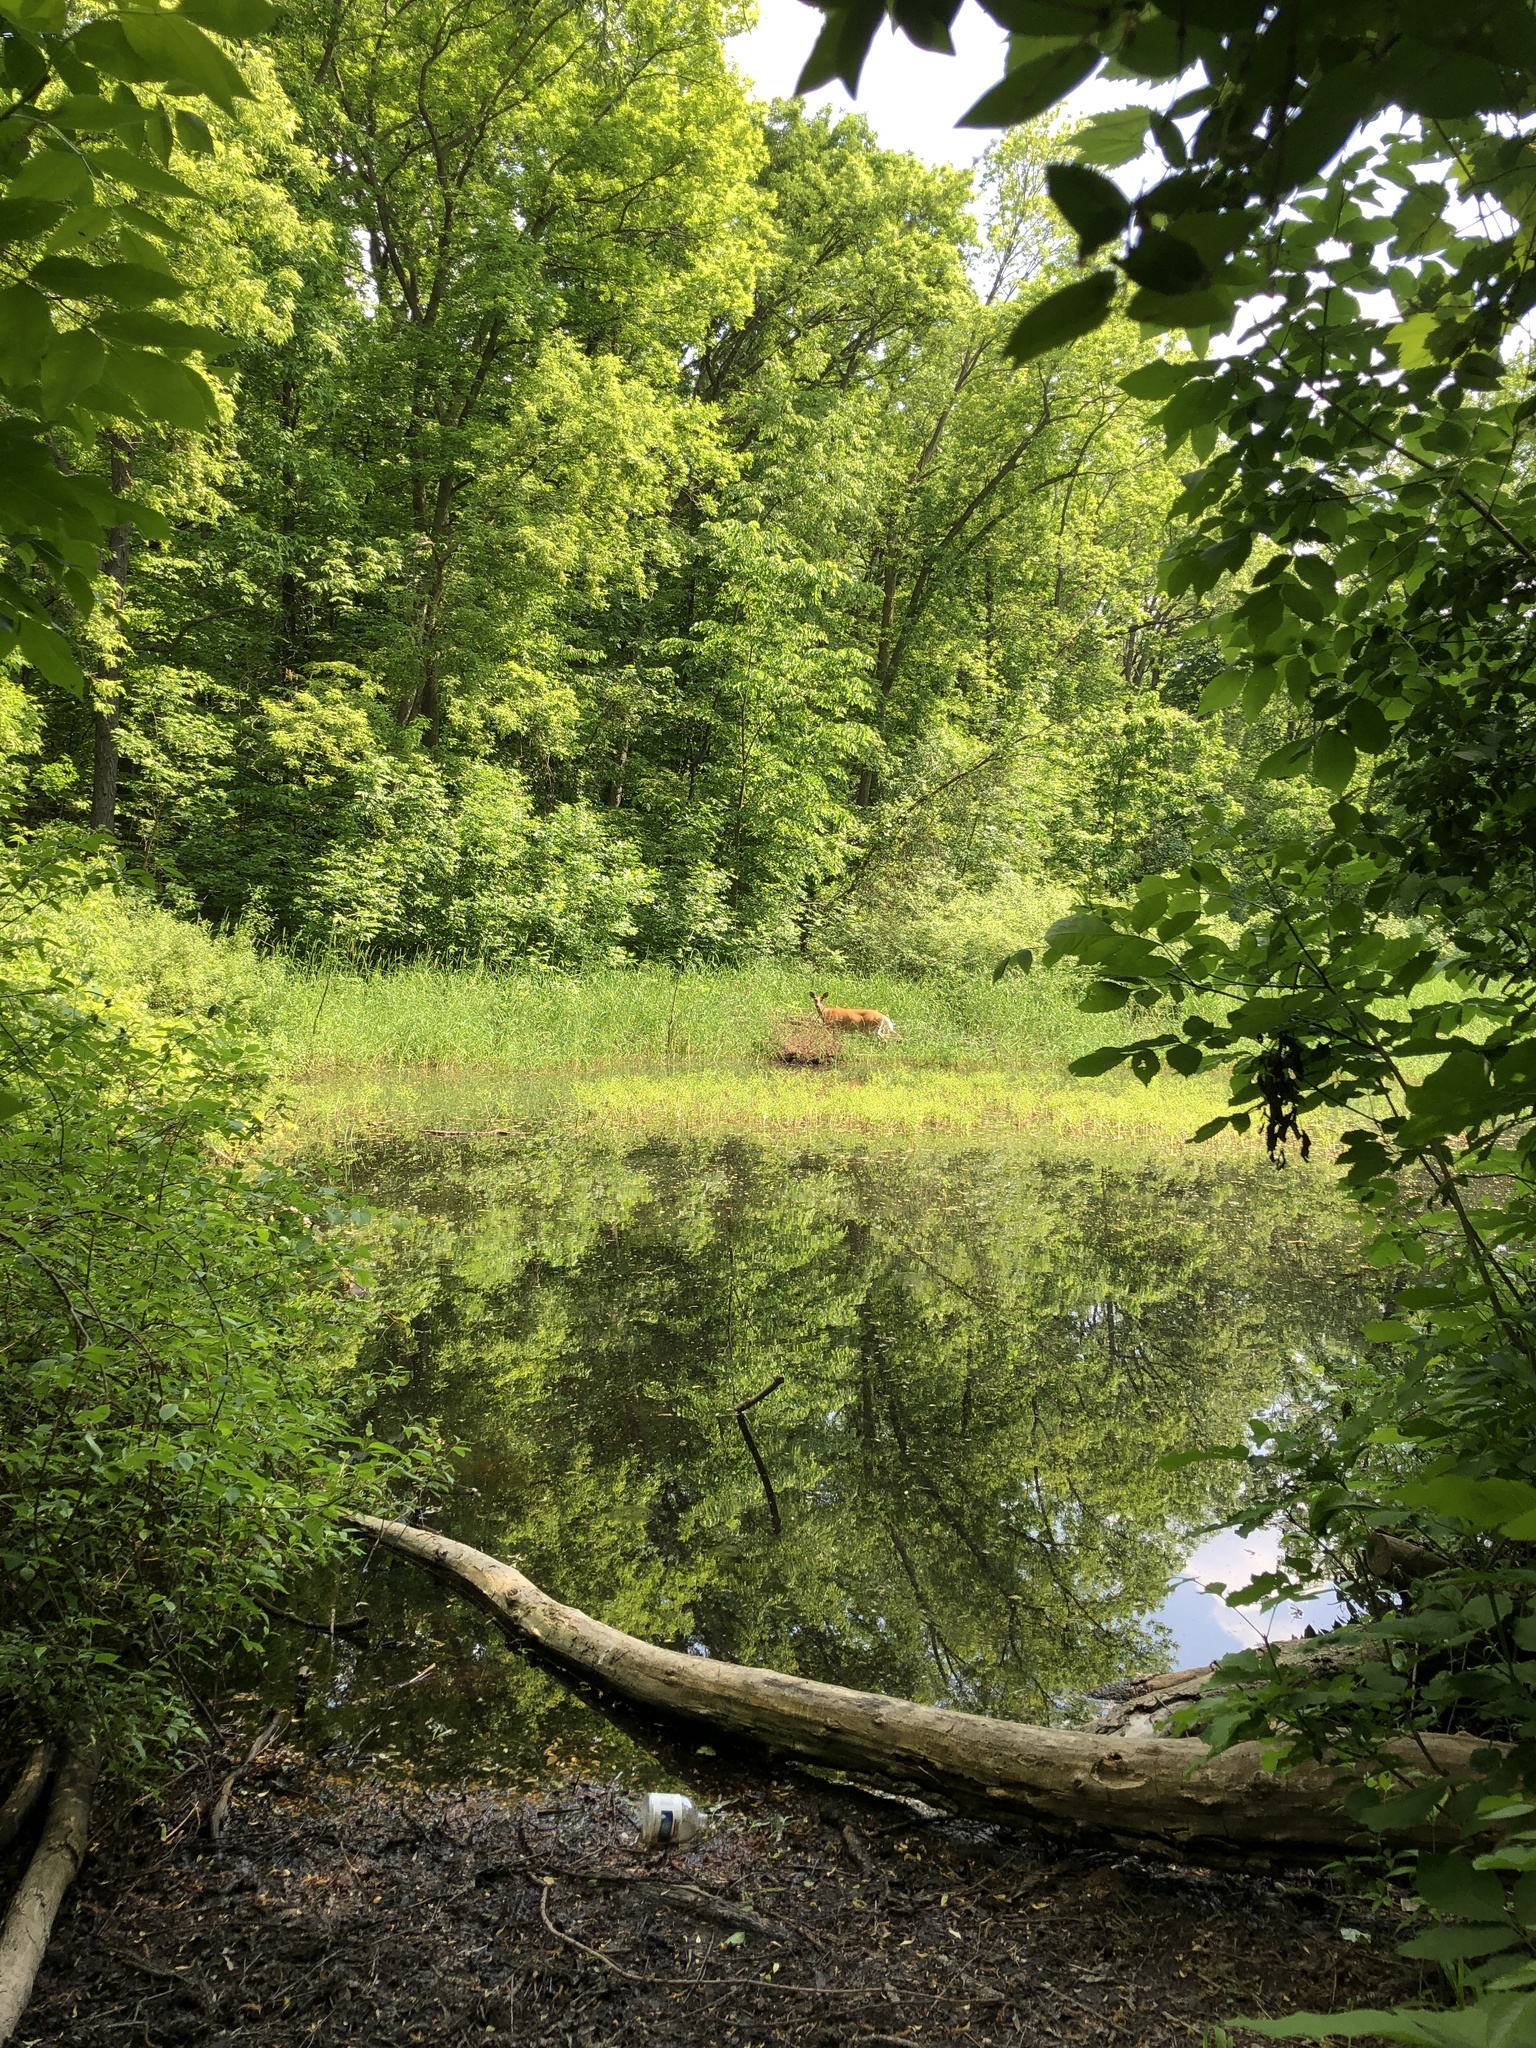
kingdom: Animalia
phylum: Chordata
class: Mammalia
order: Artiodactyla
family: Cervidae
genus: Odocoileus
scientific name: Odocoileus virginianus
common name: White-tailed deer
